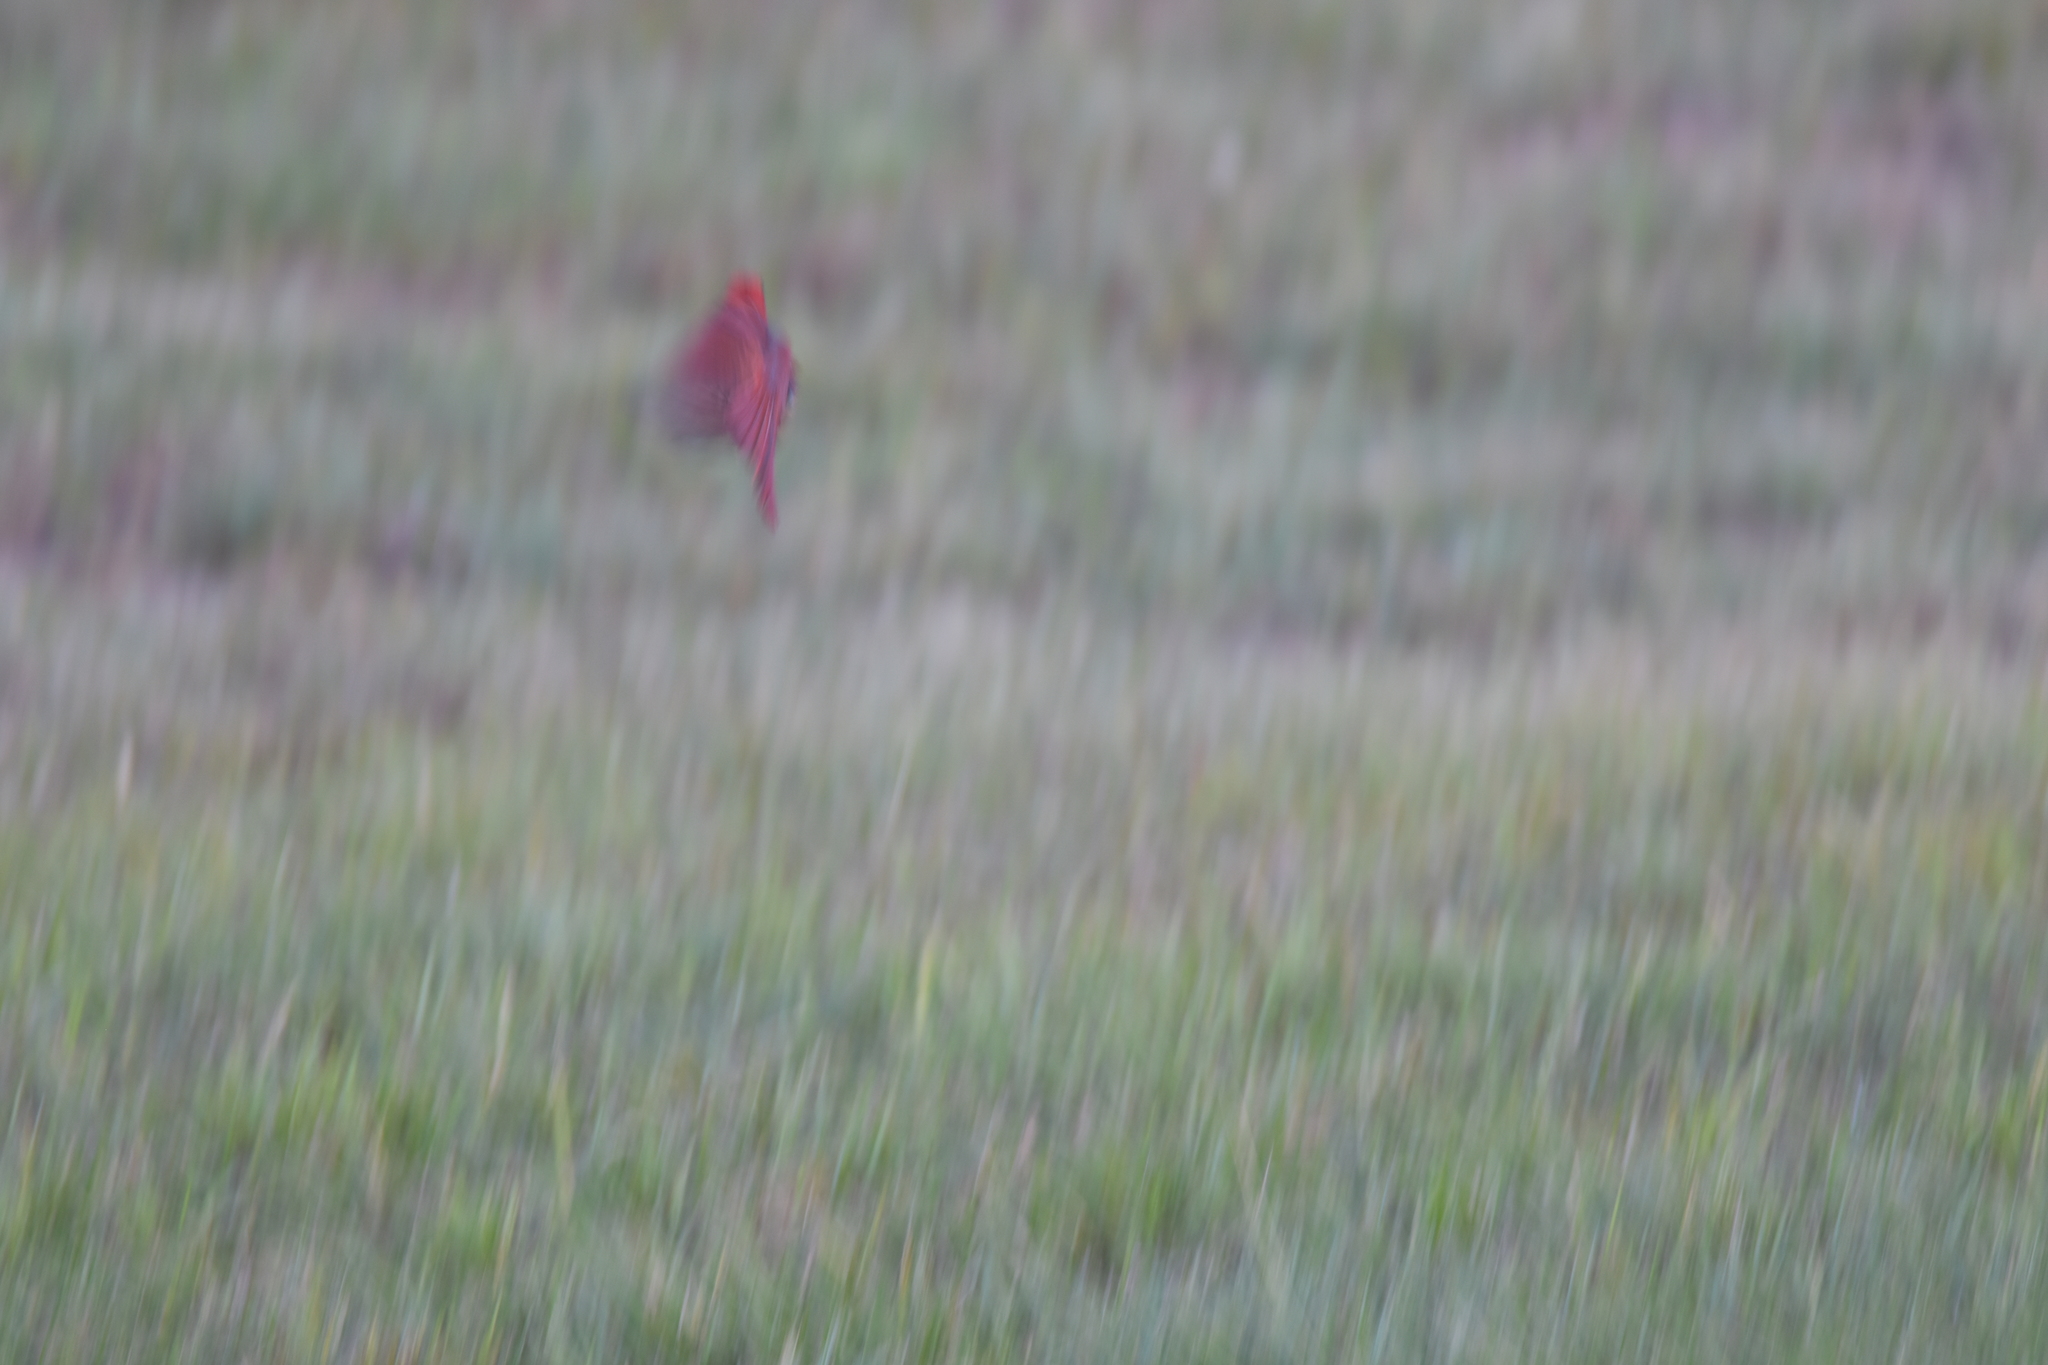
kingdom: Animalia
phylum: Chordata
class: Aves
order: Passeriformes
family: Cardinalidae
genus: Cardinalis
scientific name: Cardinalis cardinalis
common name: Northern cardinal
